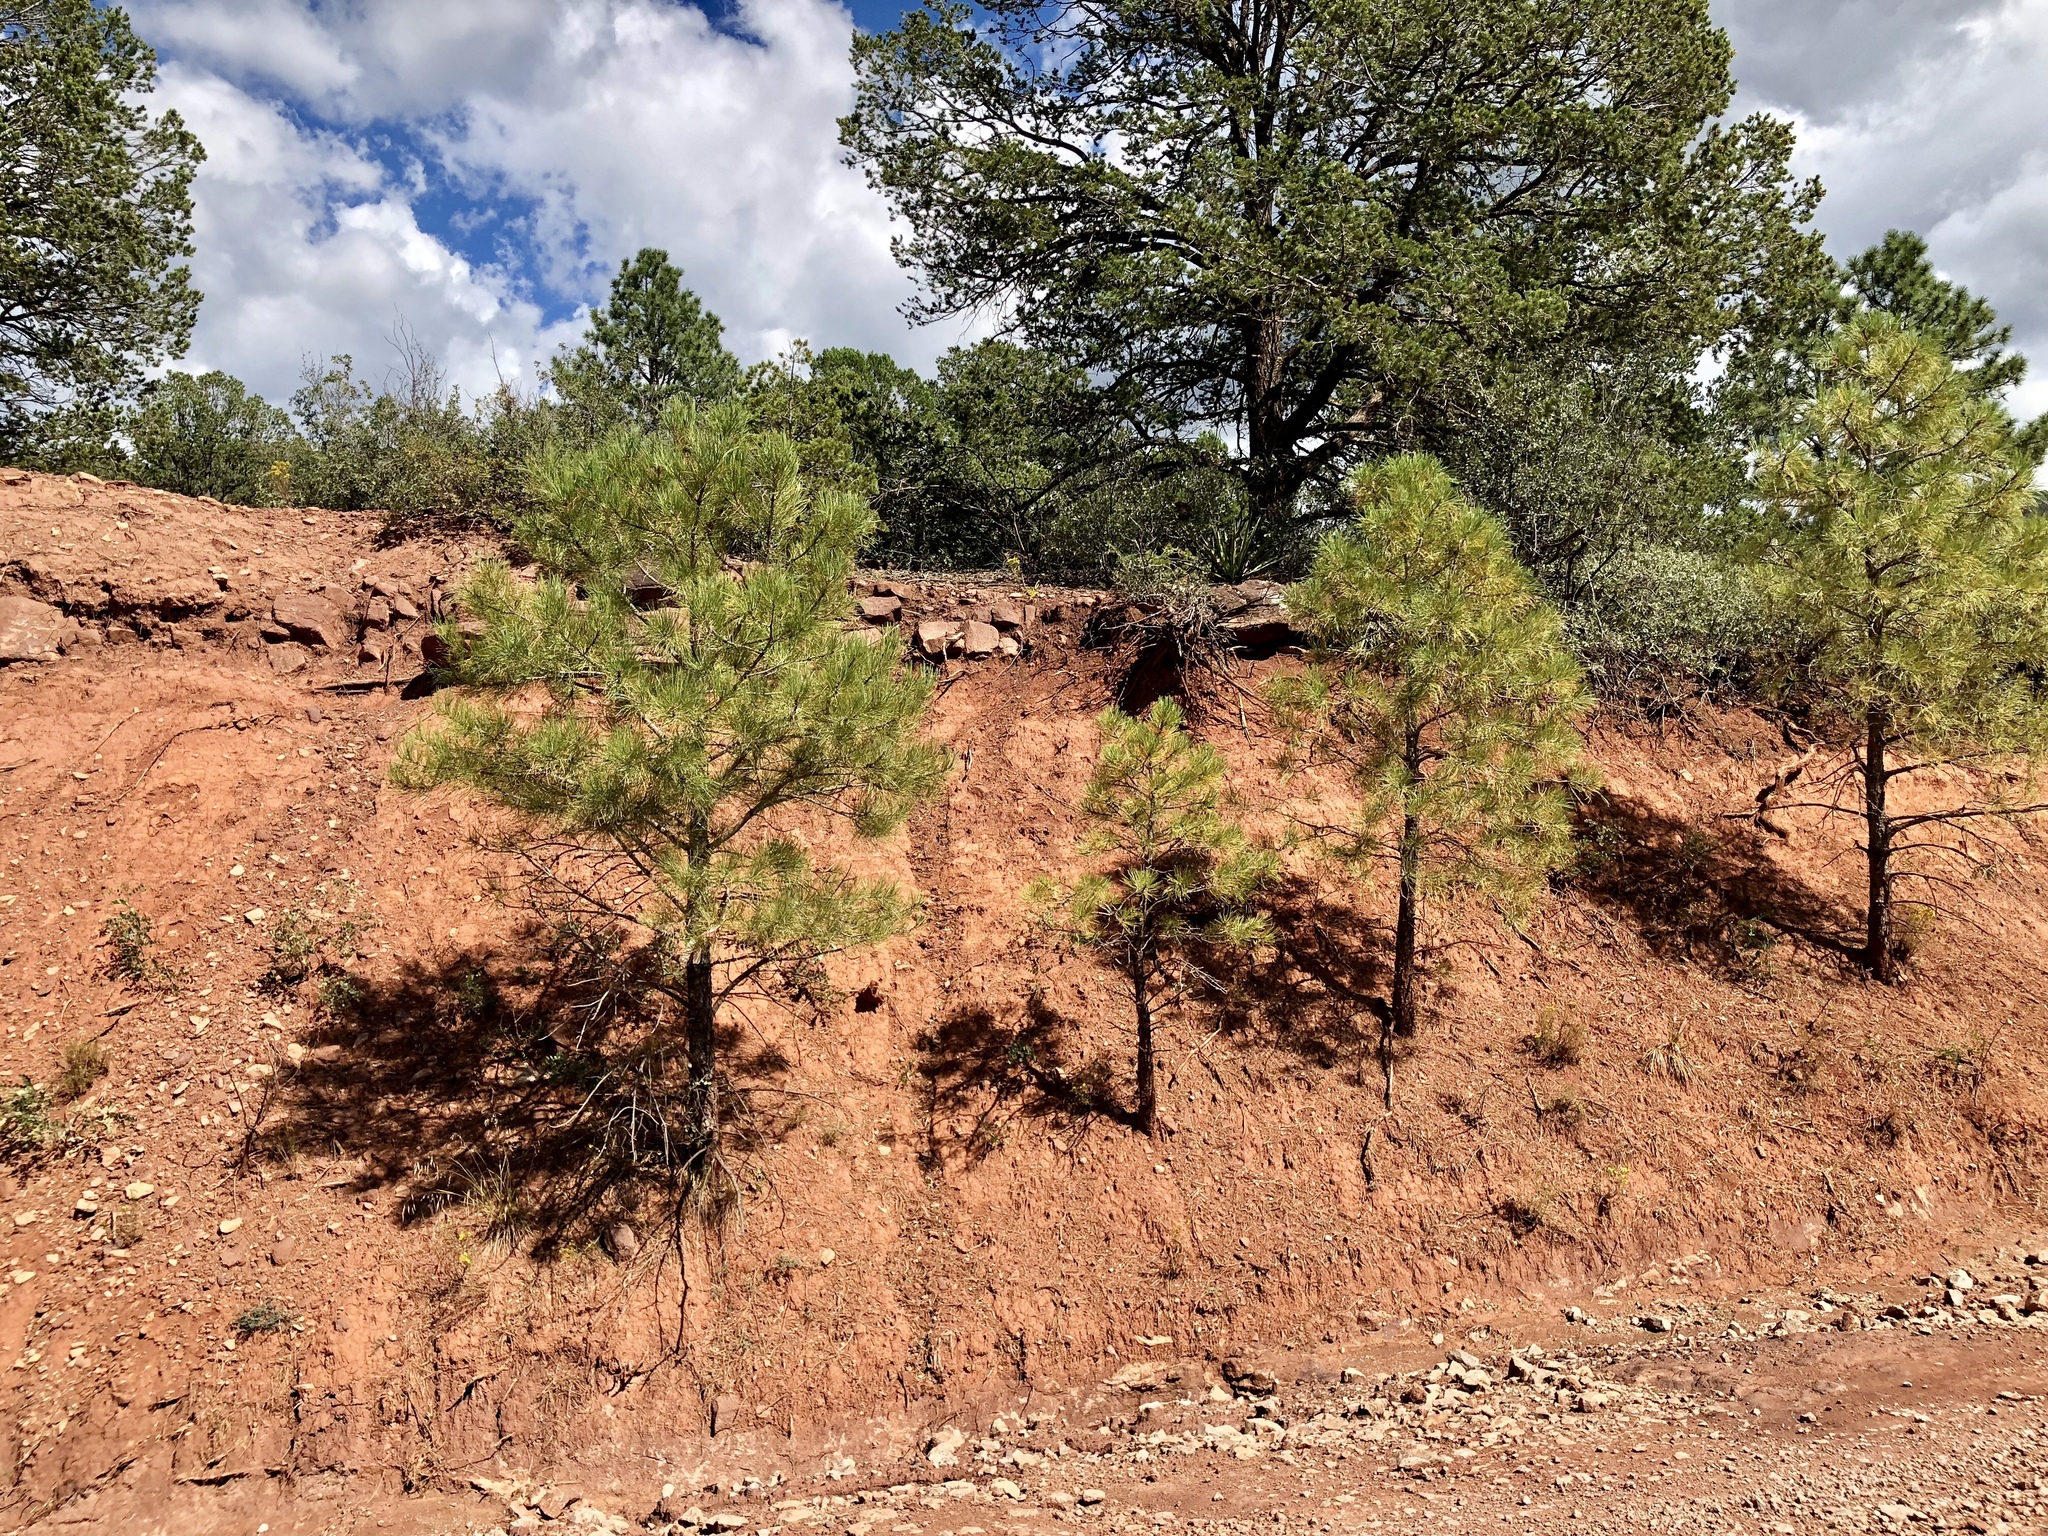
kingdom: Plantae
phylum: Tracheophyta
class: Pinopsida
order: Pinales
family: Pinaceae
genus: Pinus
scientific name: Pinus ponderosa
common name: Western yellow-pine
